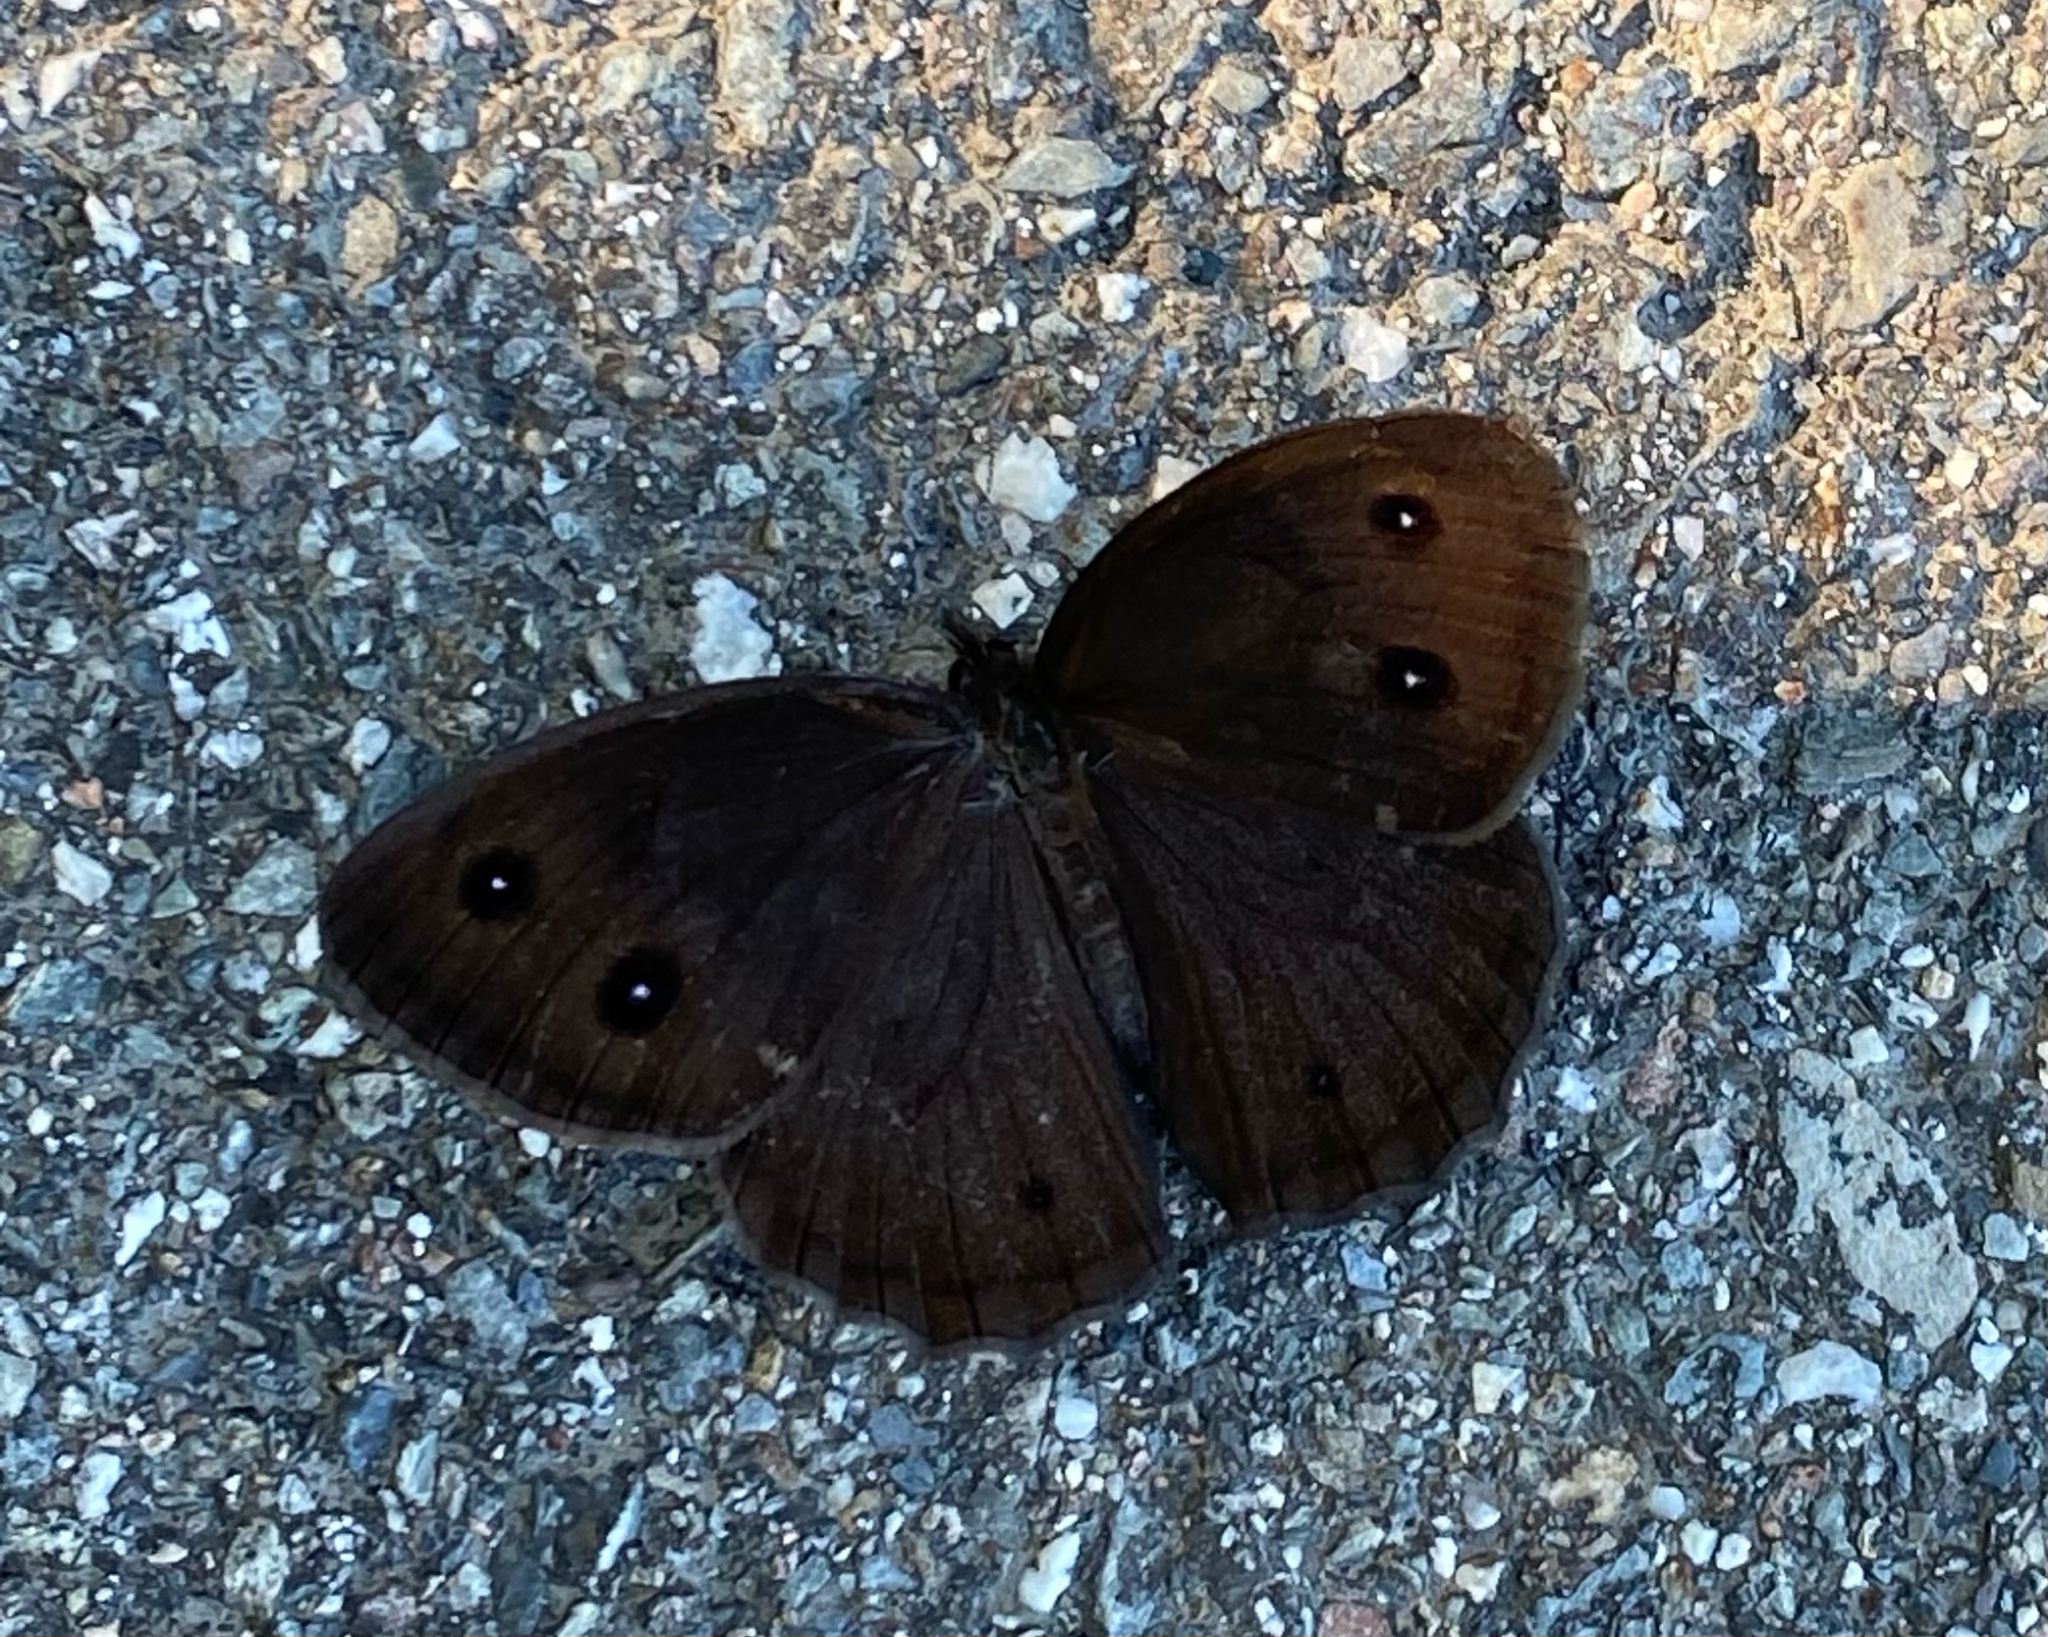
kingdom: Animalia
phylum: Arthropoda
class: Insecta
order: Lepidoptera
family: Nymphalidae
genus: Cercyonis
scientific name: Cercyonis pegala
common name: Common wood-nymph
